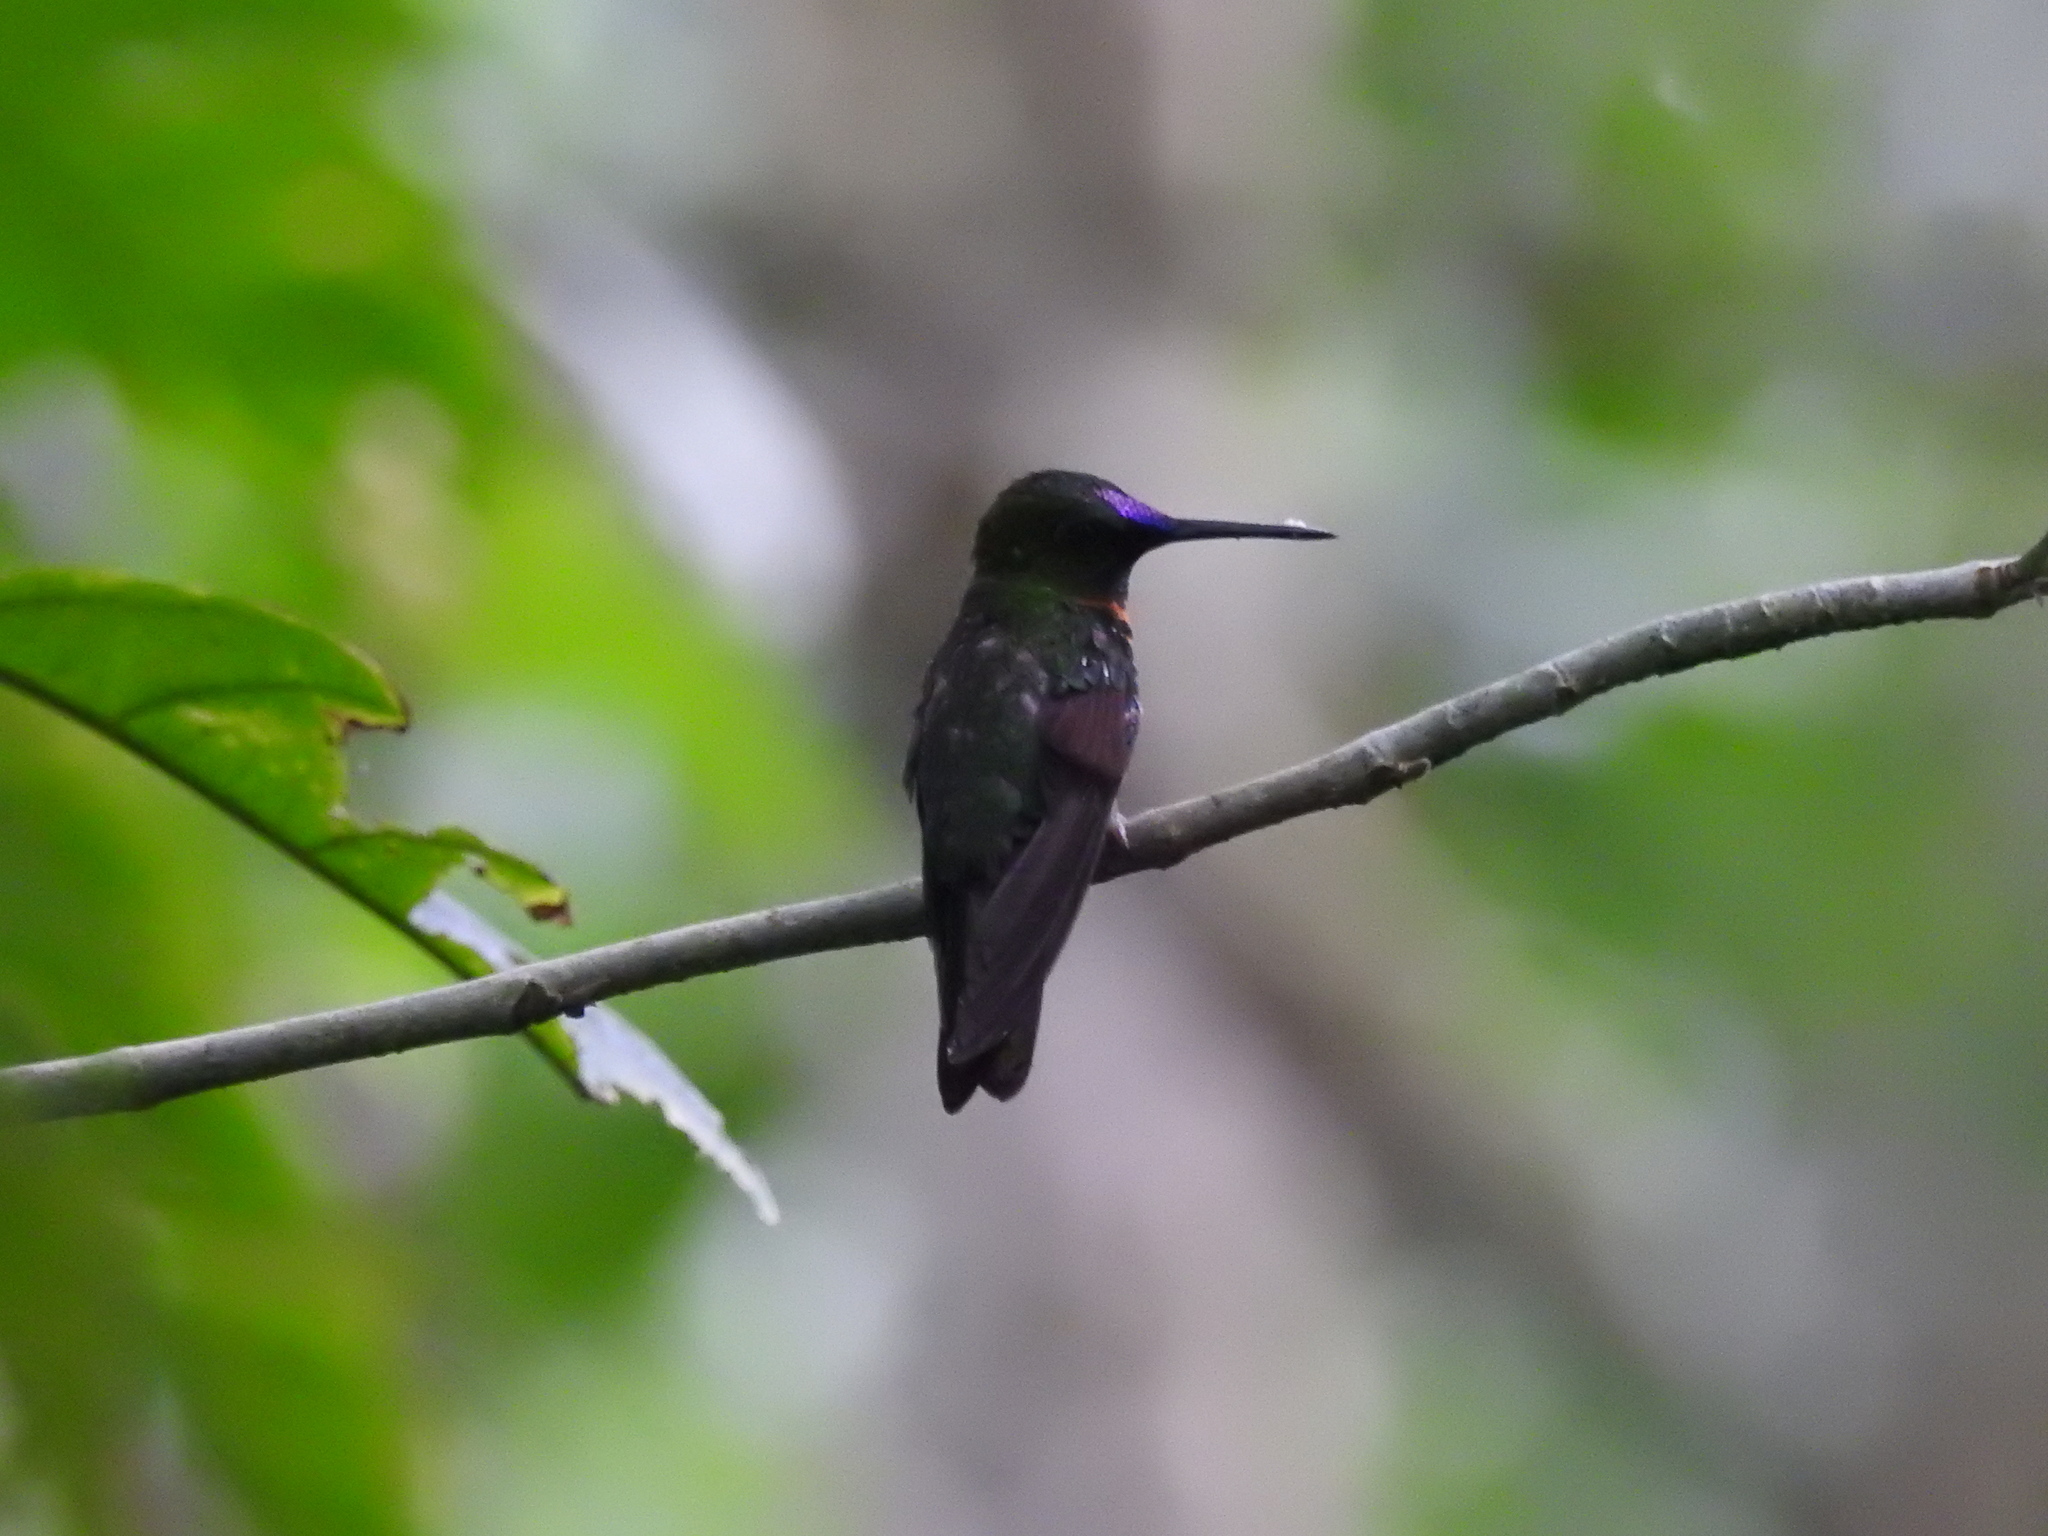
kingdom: Animalia
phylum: Chordata
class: Aves
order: Apodiformes
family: Trochilidae
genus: Heliodoxa
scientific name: Heliodoxa aurescens
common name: Gould's jewelfront
